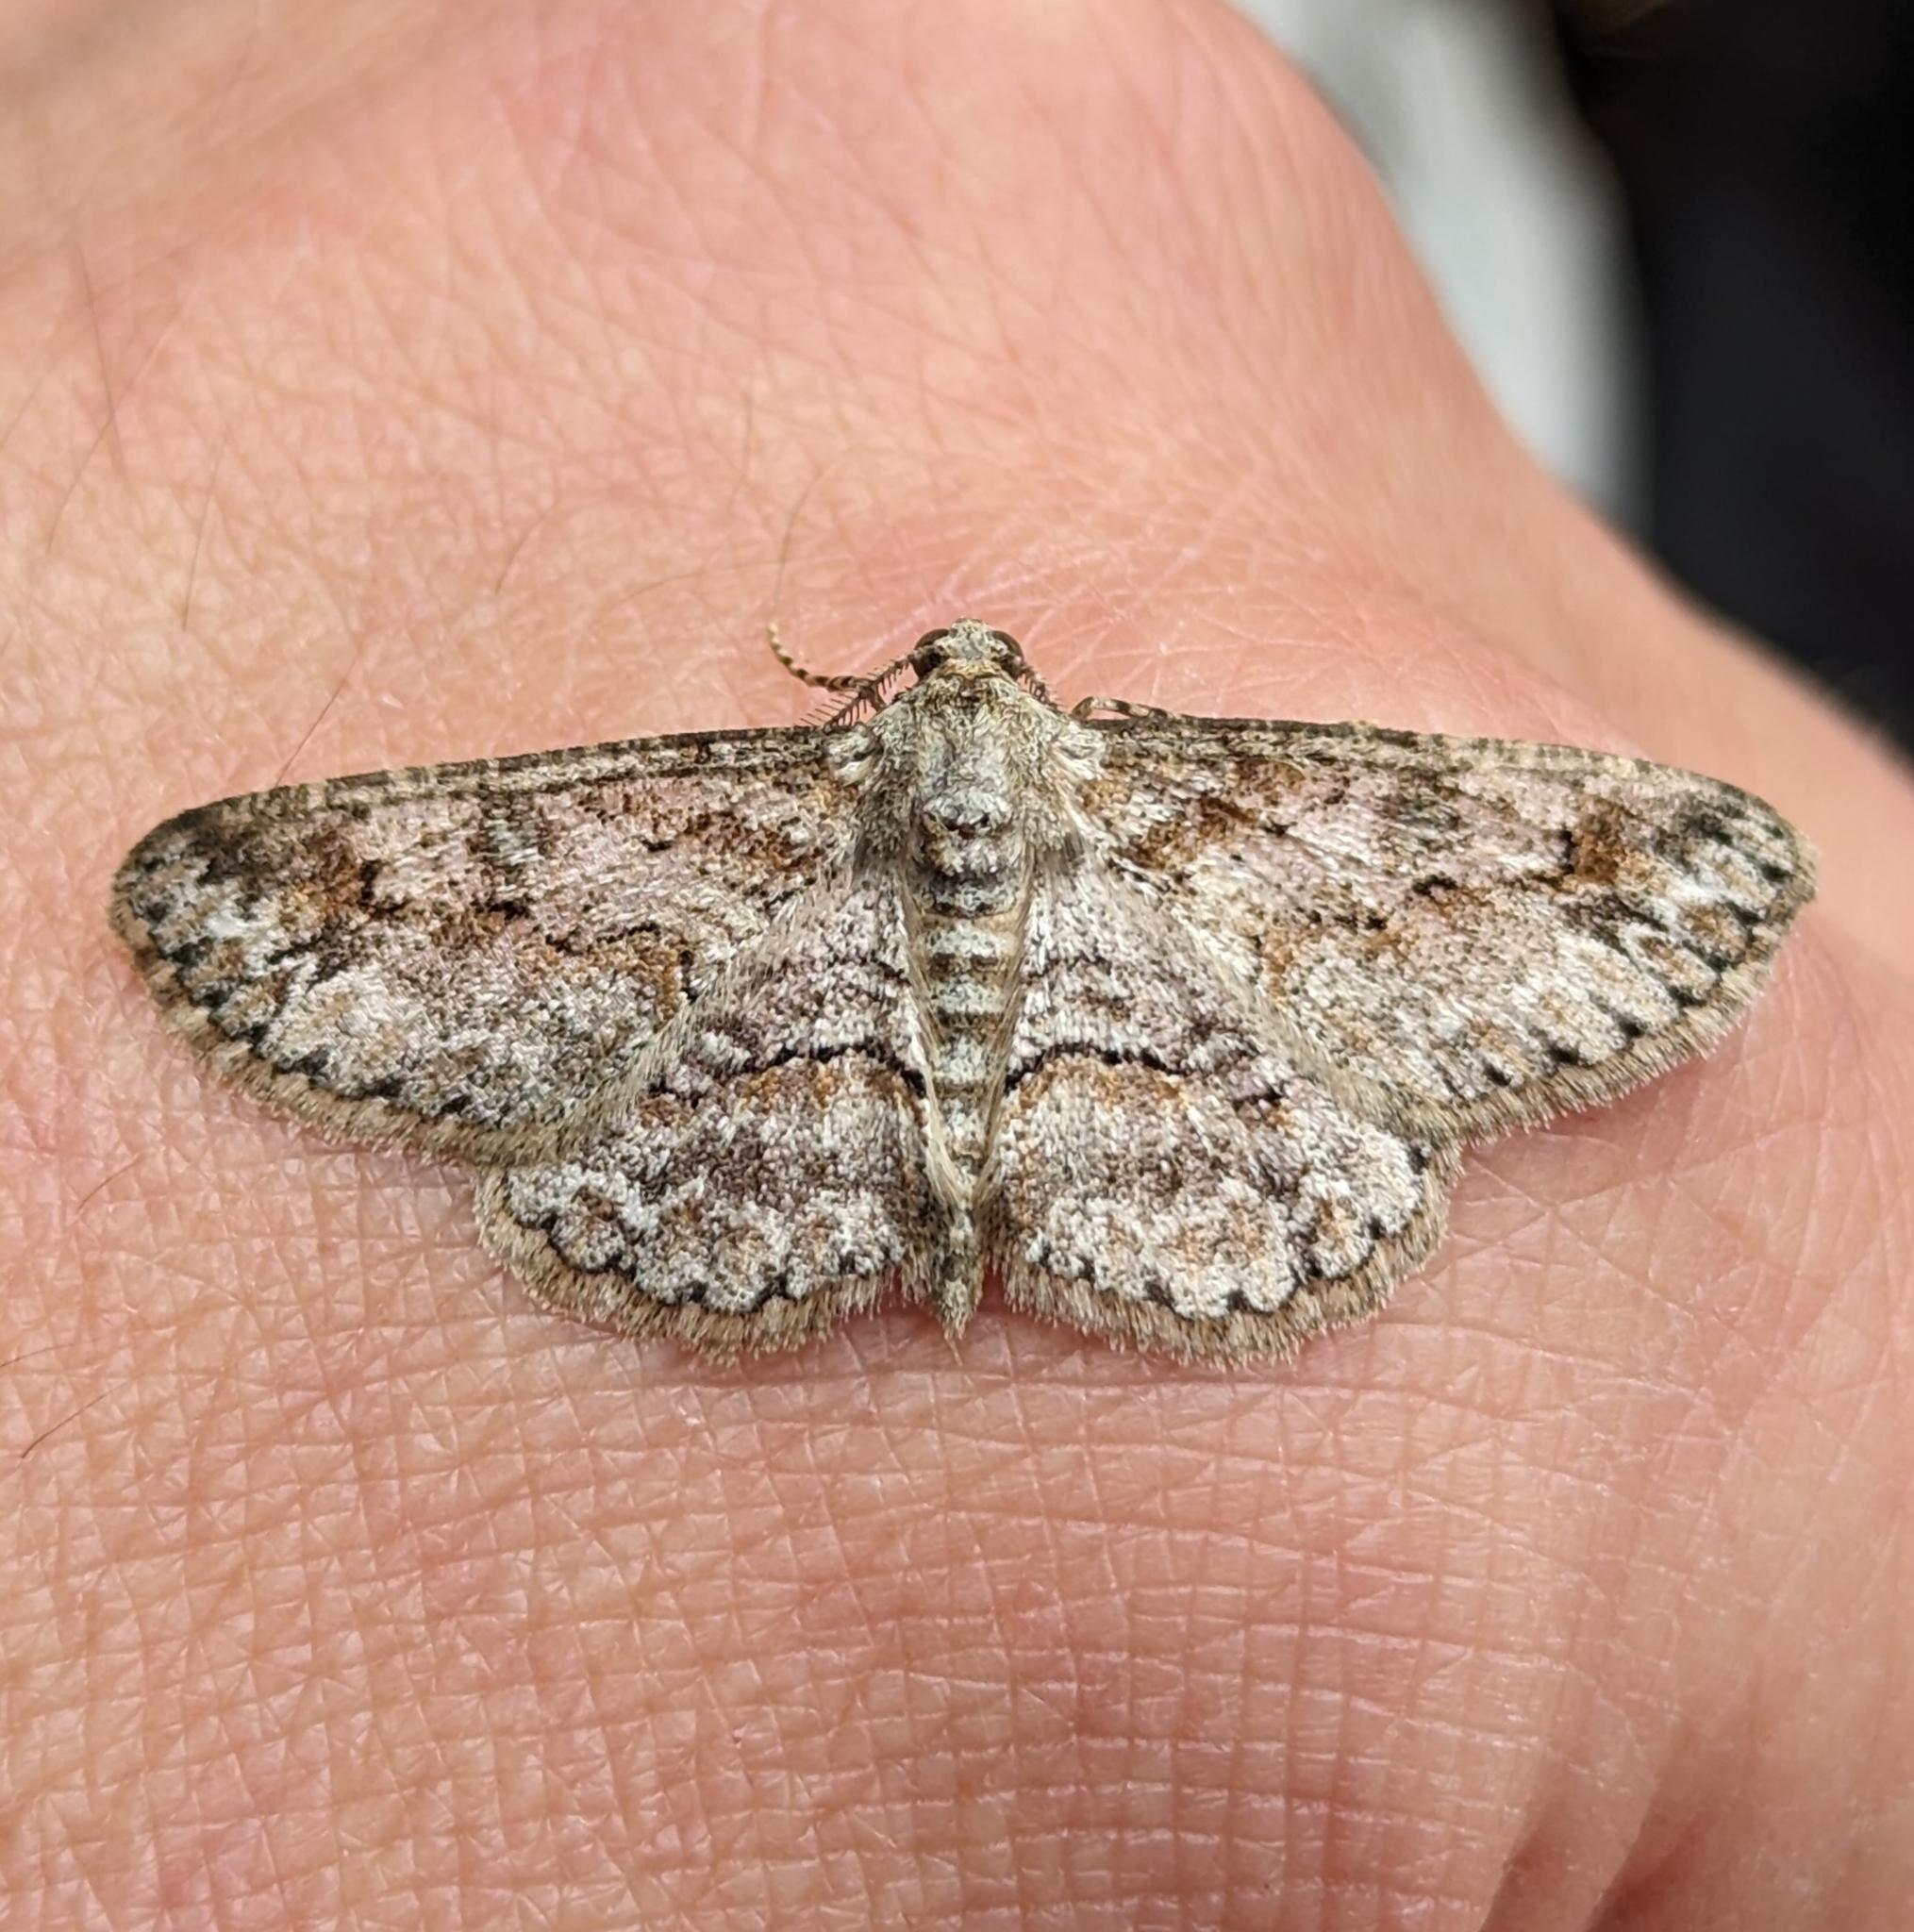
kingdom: Animalia
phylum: Arthropoda
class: Insecta
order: Lepidoptera
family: Geometridae
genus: Iridopsis
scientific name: Iridopsis emasculatum
